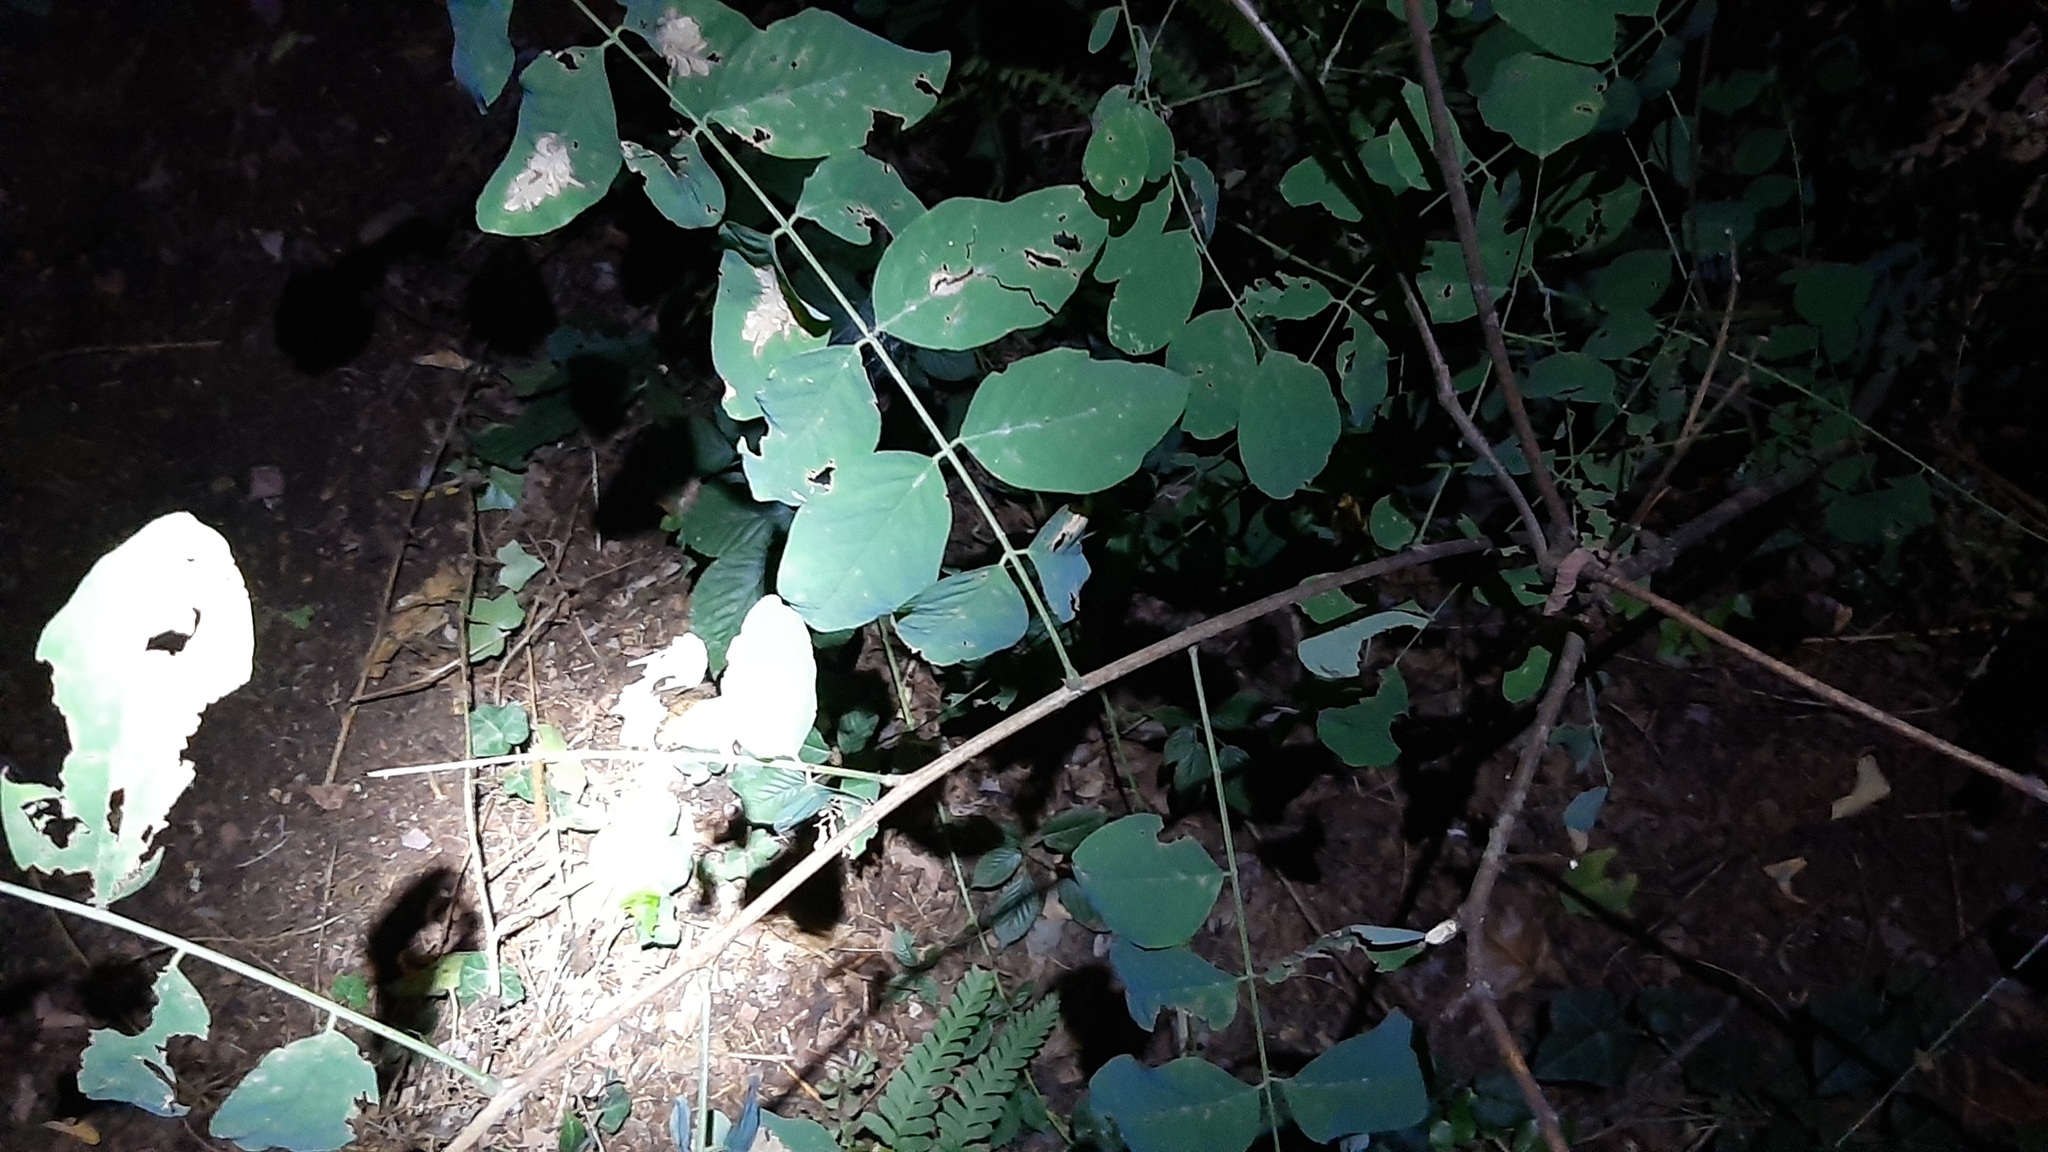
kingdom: Plantae
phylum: Tracheophyta
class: Magnoliopsida
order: Fabales
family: Fabaceae
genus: Robinia
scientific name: Robinia pseudoacacia
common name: Black locust
